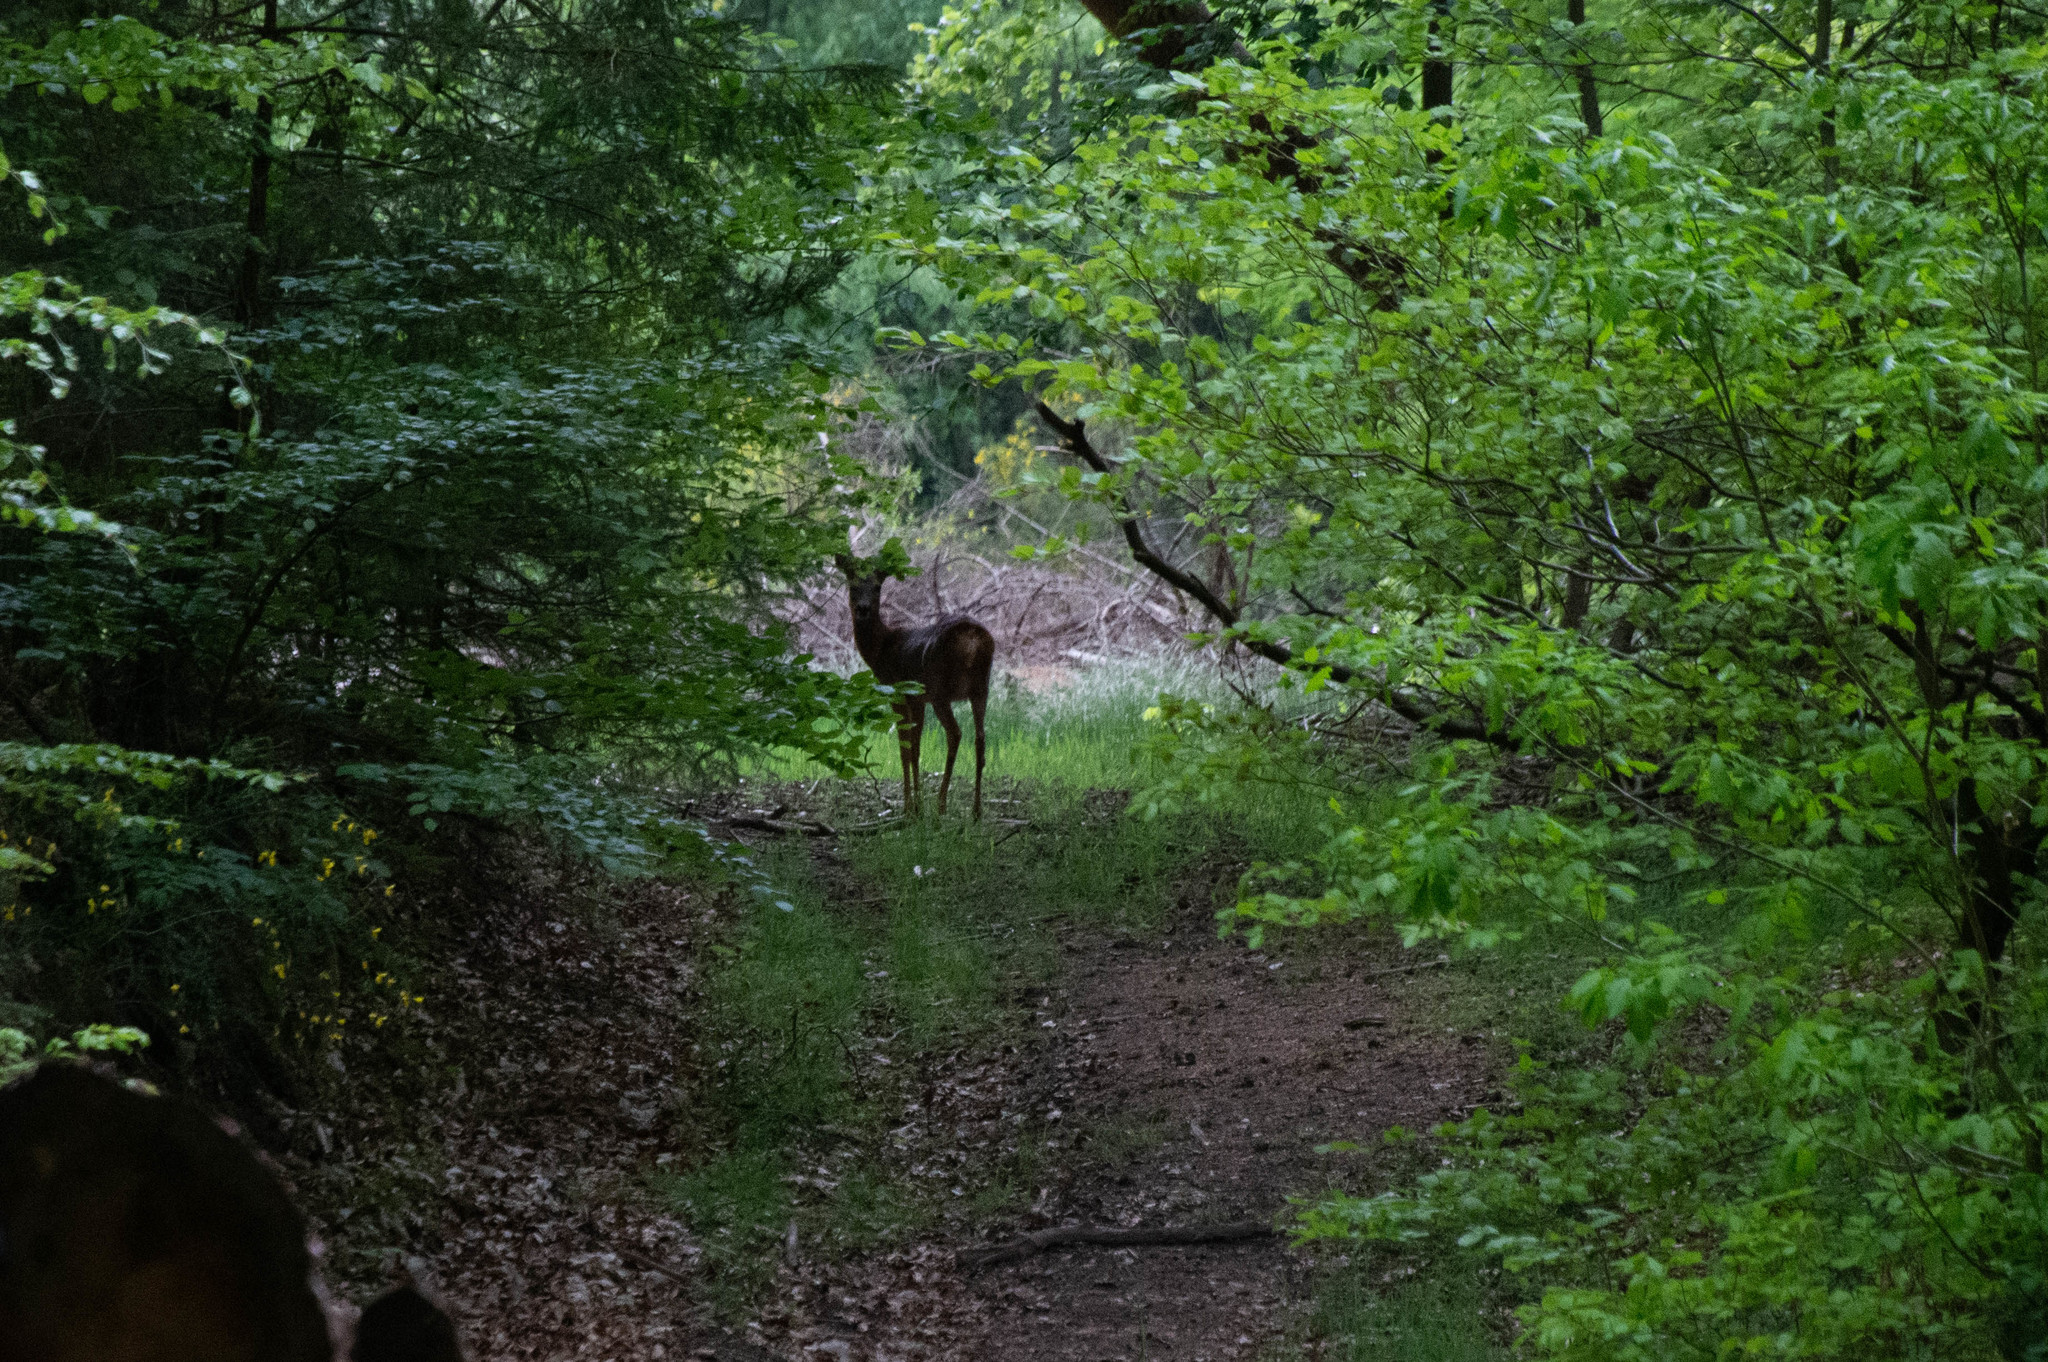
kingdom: Animalia
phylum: Chordata
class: Mammalia
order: Artiodactyla
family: Cervidae
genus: Capreolus
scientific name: Capreolus capreolus
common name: Western roe deer
